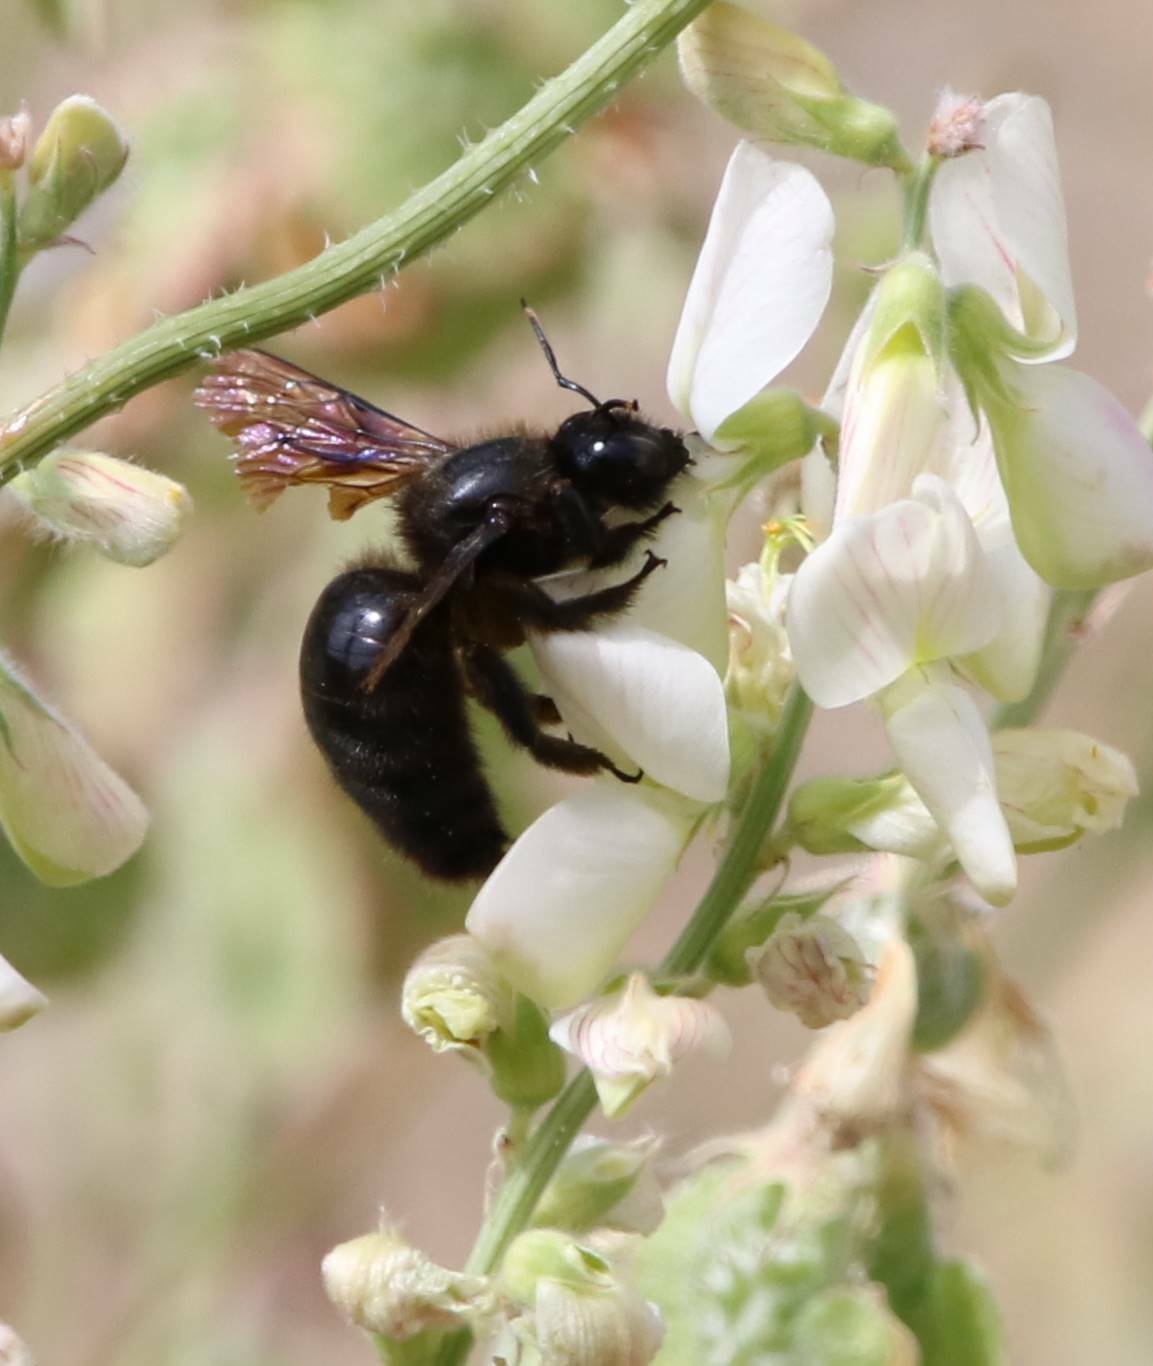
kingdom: Animalia
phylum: Arthropoda
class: Insecta
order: Hymenoptera
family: Apidae
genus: Xylocopa
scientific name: Xylocopa violacea
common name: Violet carpenter bee
